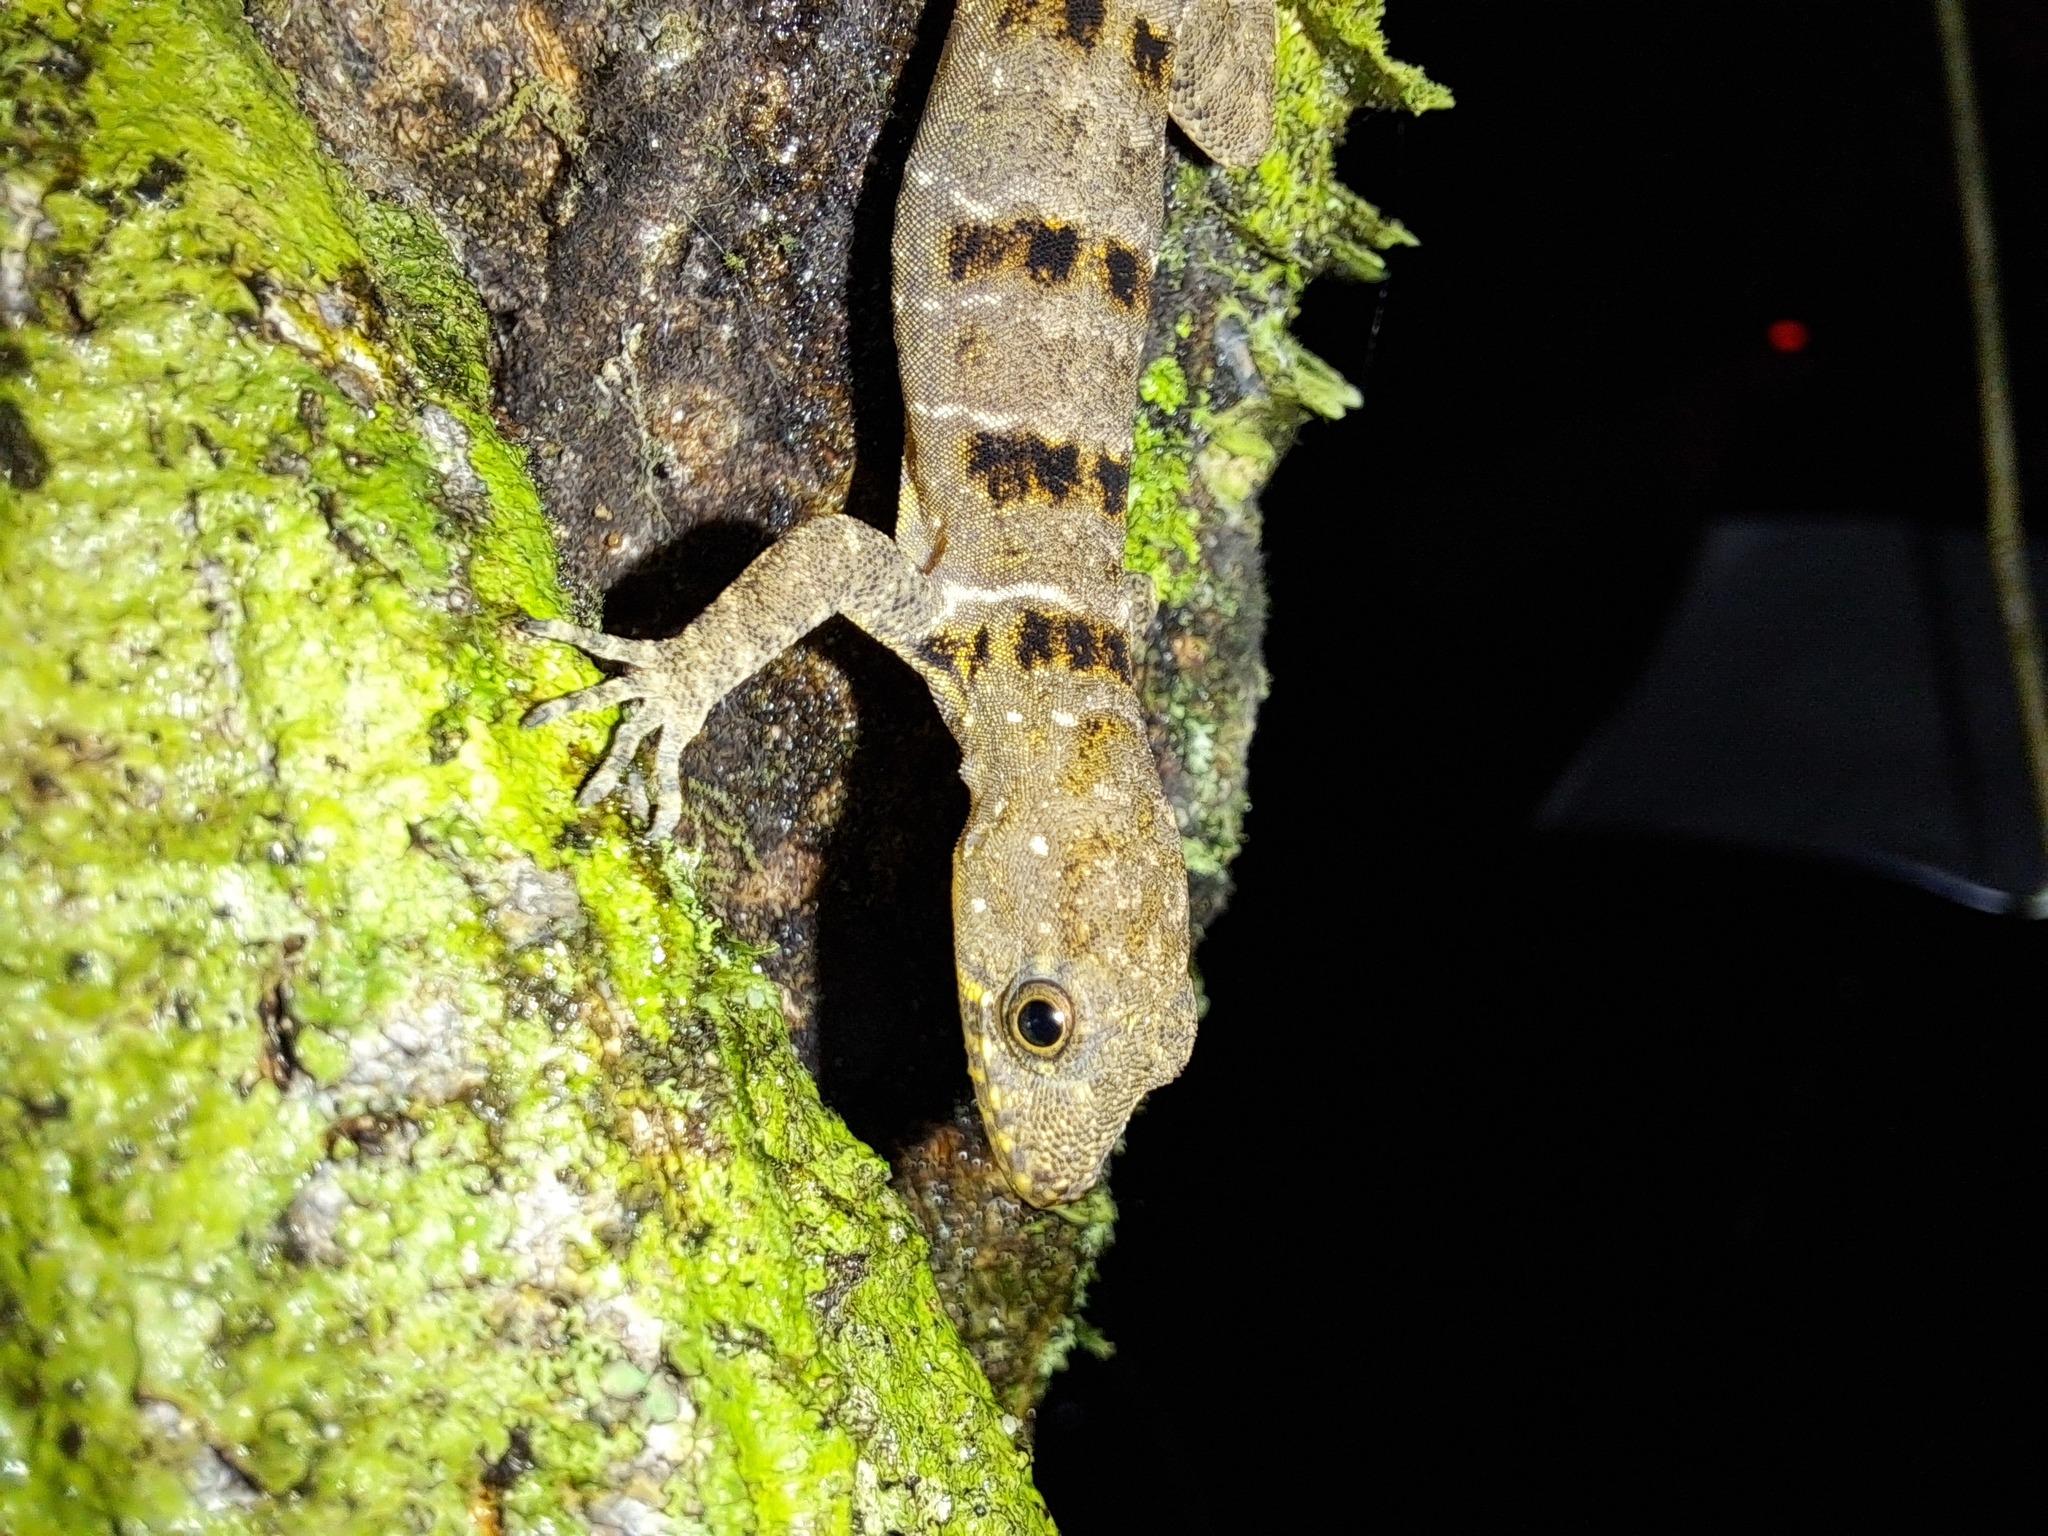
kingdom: Animalia
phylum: Chordata
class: Squamata
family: Sphaerodactylidae
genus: Gonatodes
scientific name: Gonatodes concinnatus
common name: O'shaughnessy's gecko
